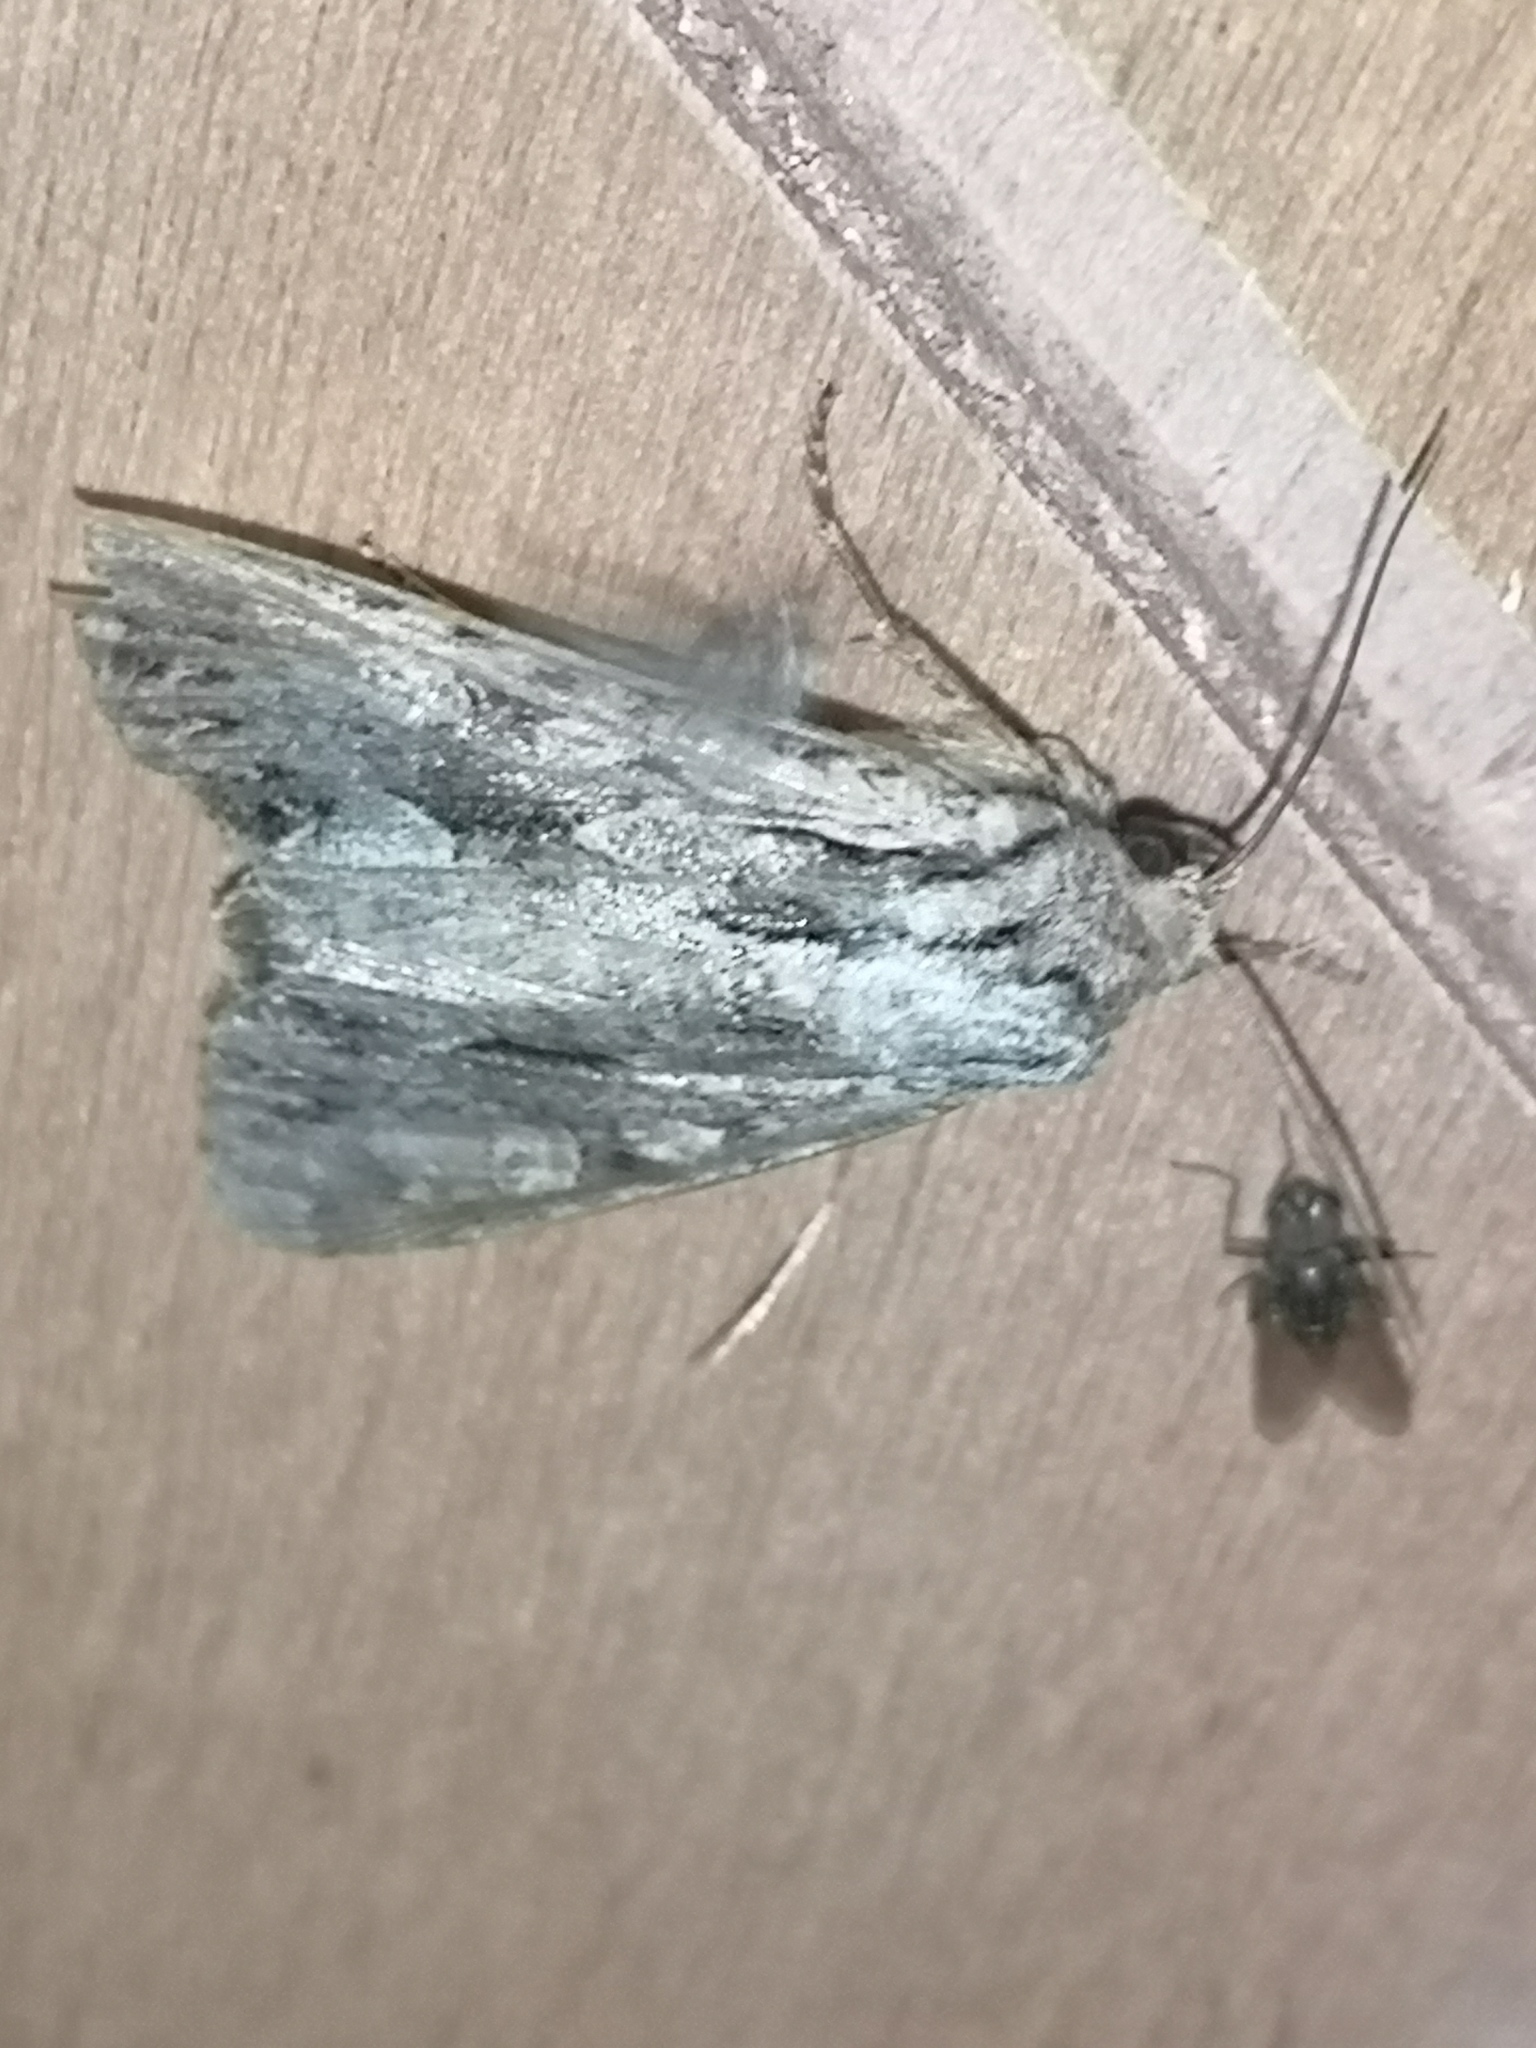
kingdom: Animalia
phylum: Arthropoda
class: Insecta
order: Lepidoptera
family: Noctuidae
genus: Apamea
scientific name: Apamea monoglypha
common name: Dark arches
